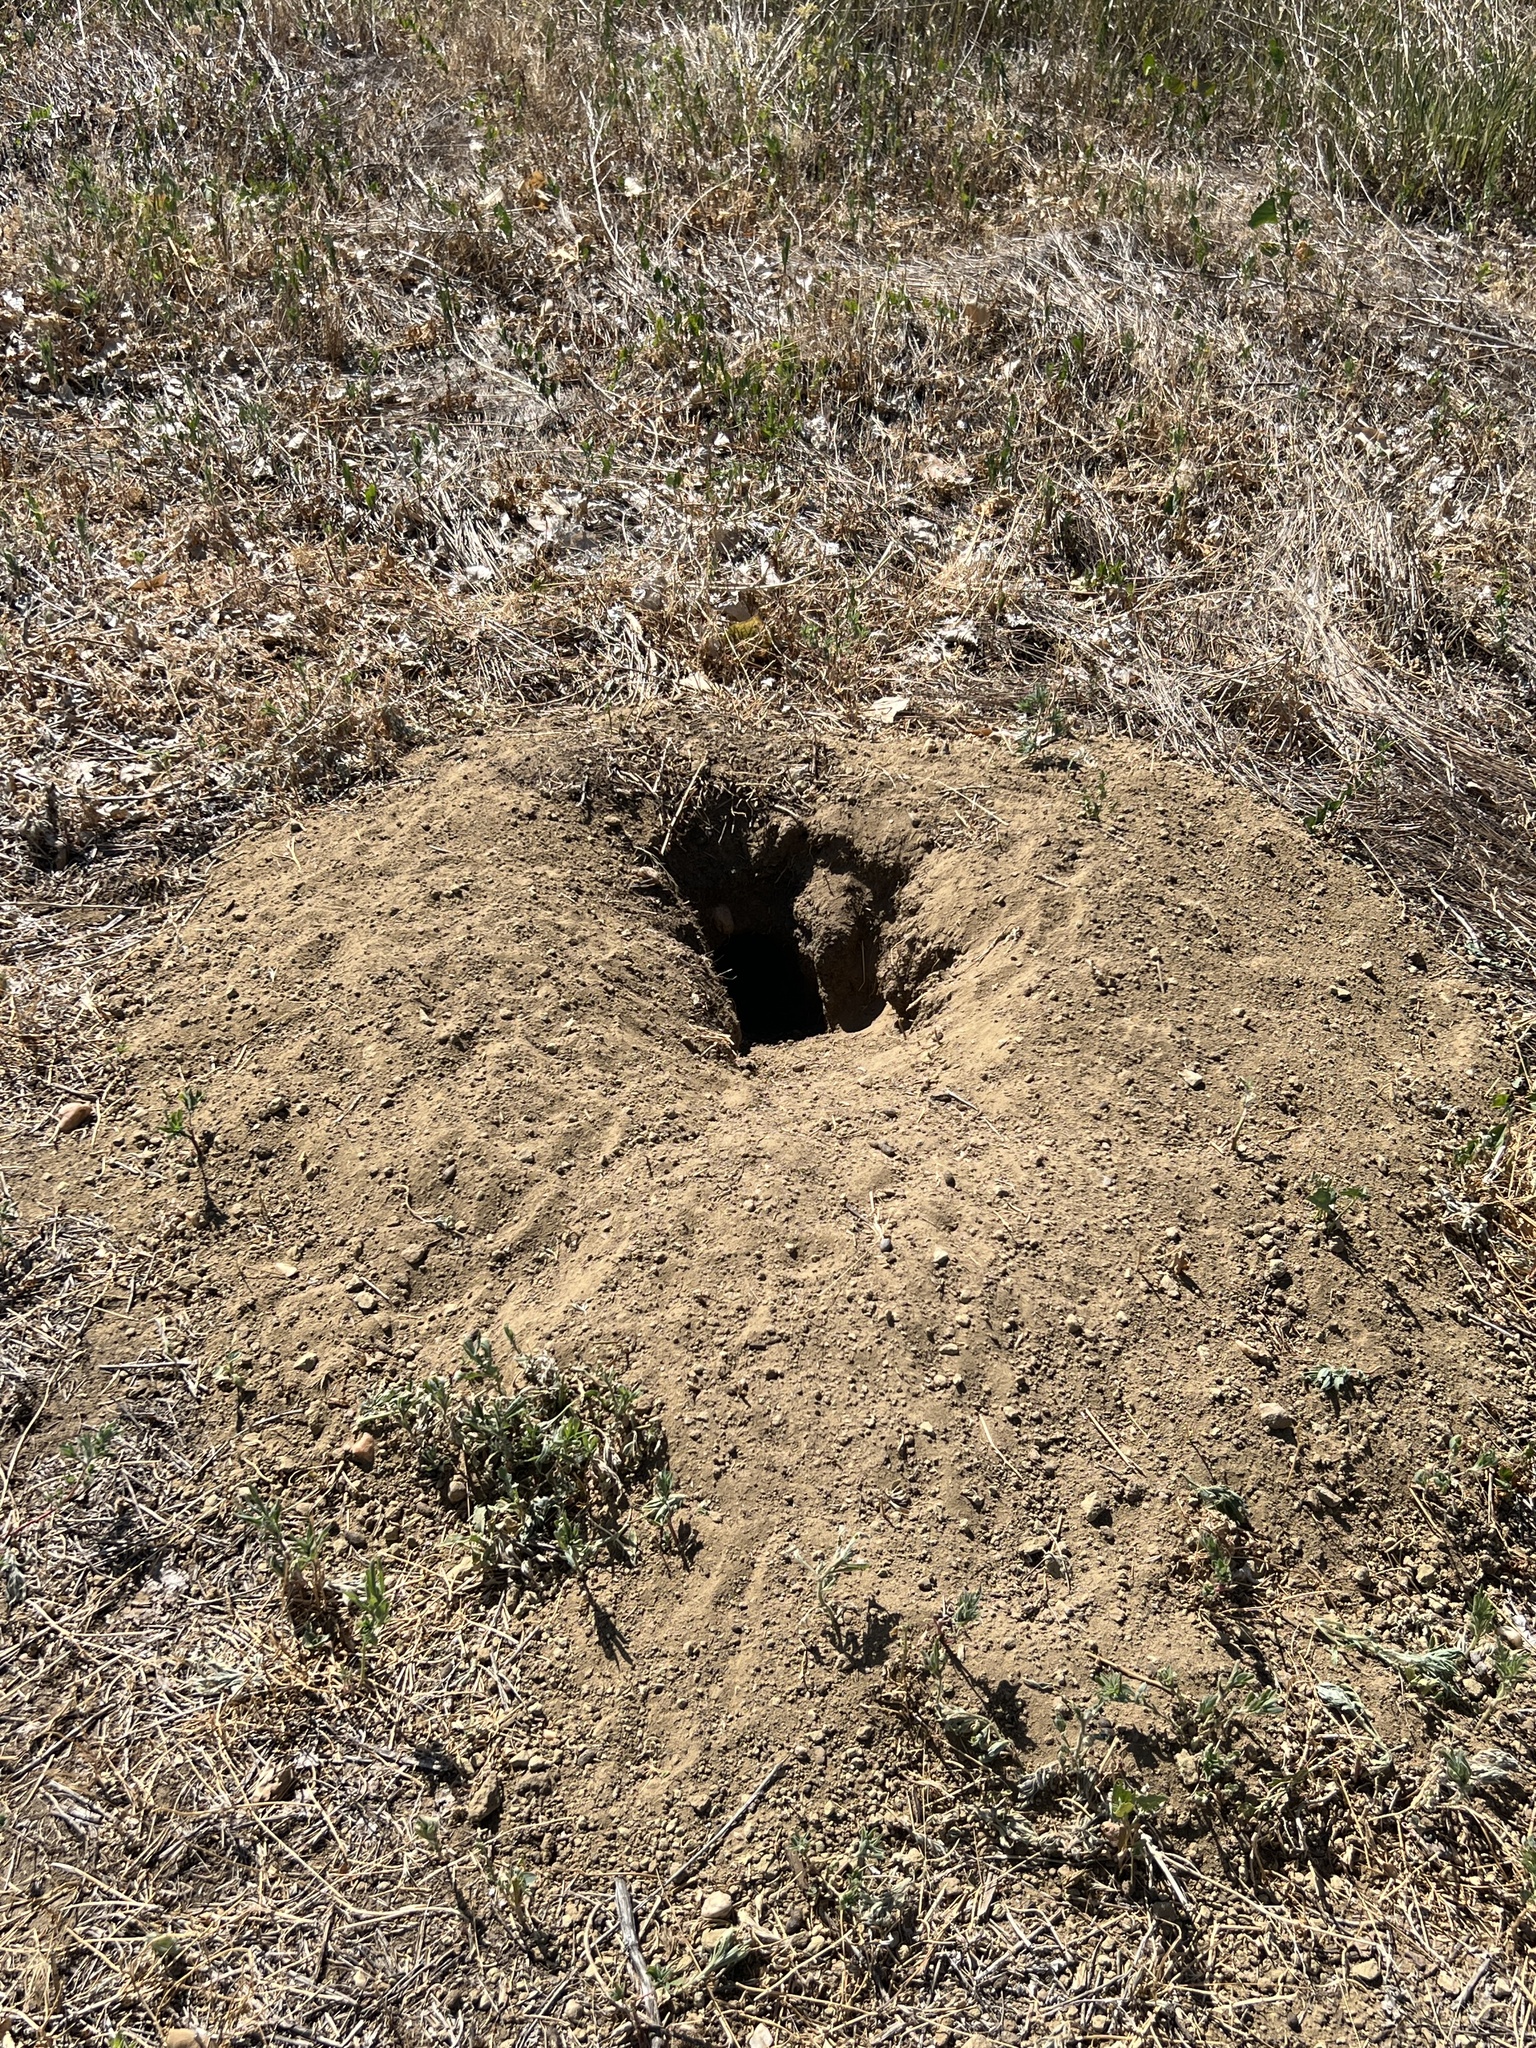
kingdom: Animalia
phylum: Chordata
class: Mammalia
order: Rodentia
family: Sciuridae
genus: Cynomys
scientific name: Cynomys ludovicianus
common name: Black-tailed prairie dog
